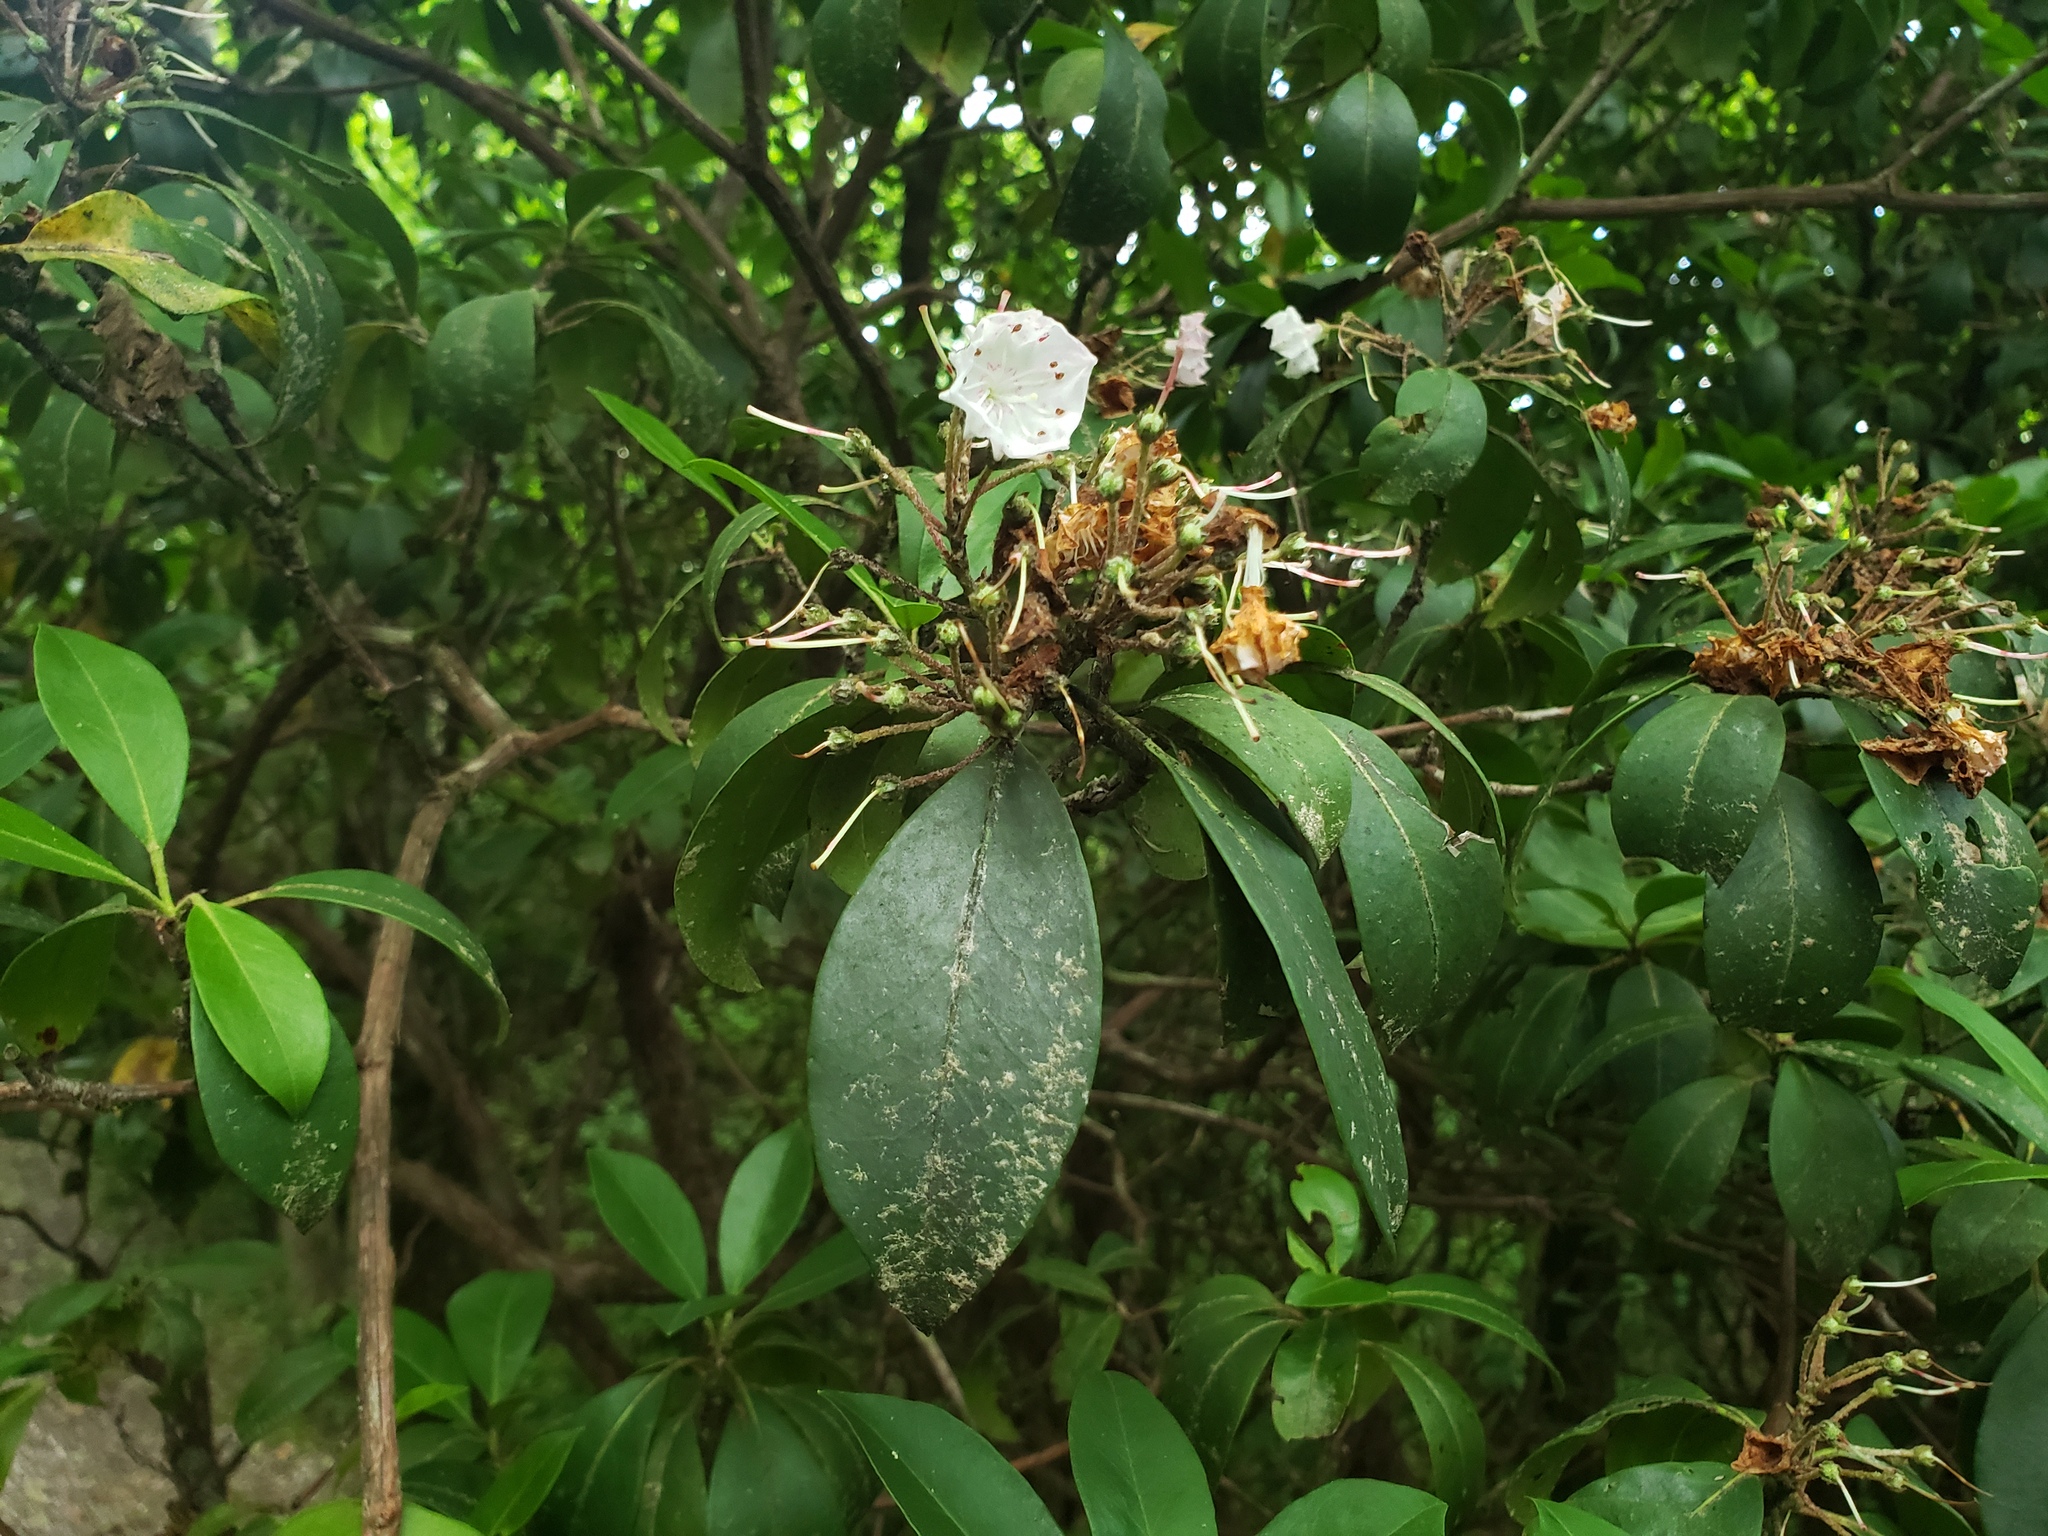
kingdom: Plantae
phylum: Tracheophyta
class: Magnoliopsida
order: Ericales
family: Ericaceae
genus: Kalmia
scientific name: Kalmia latifolia
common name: Mountain-laurel
